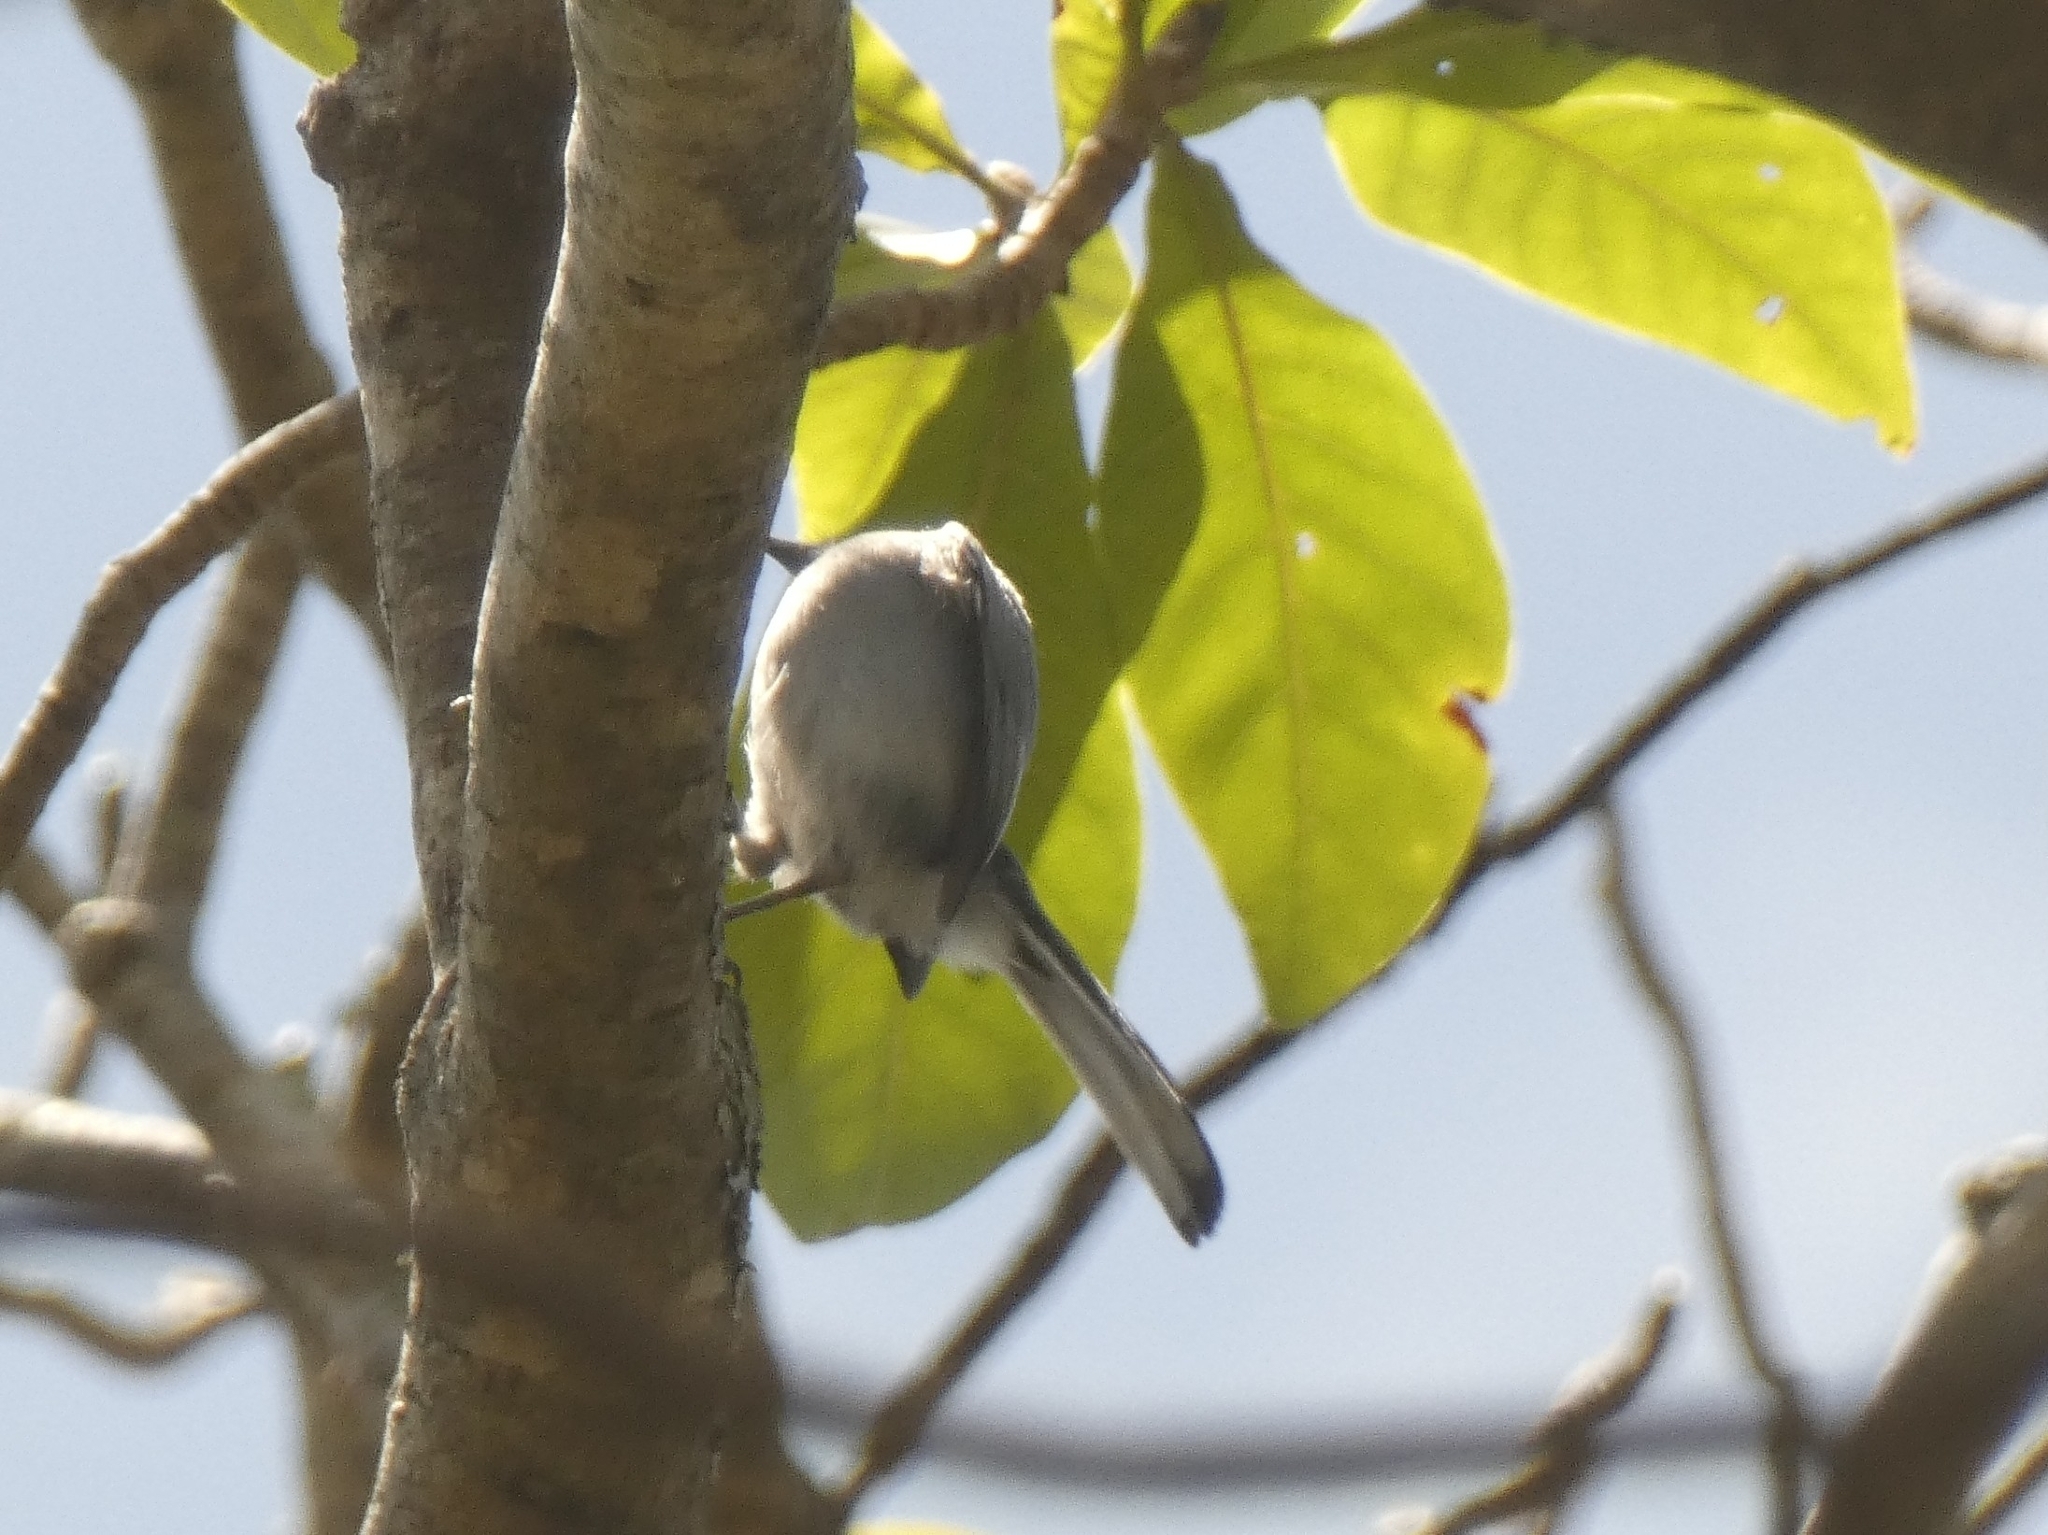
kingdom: Animalia
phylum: Chordata
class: Aves
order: Passeriformes
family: Polioptilidae
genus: Polioptila
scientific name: Polioptila dumicola
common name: Masked gnatcatcher
